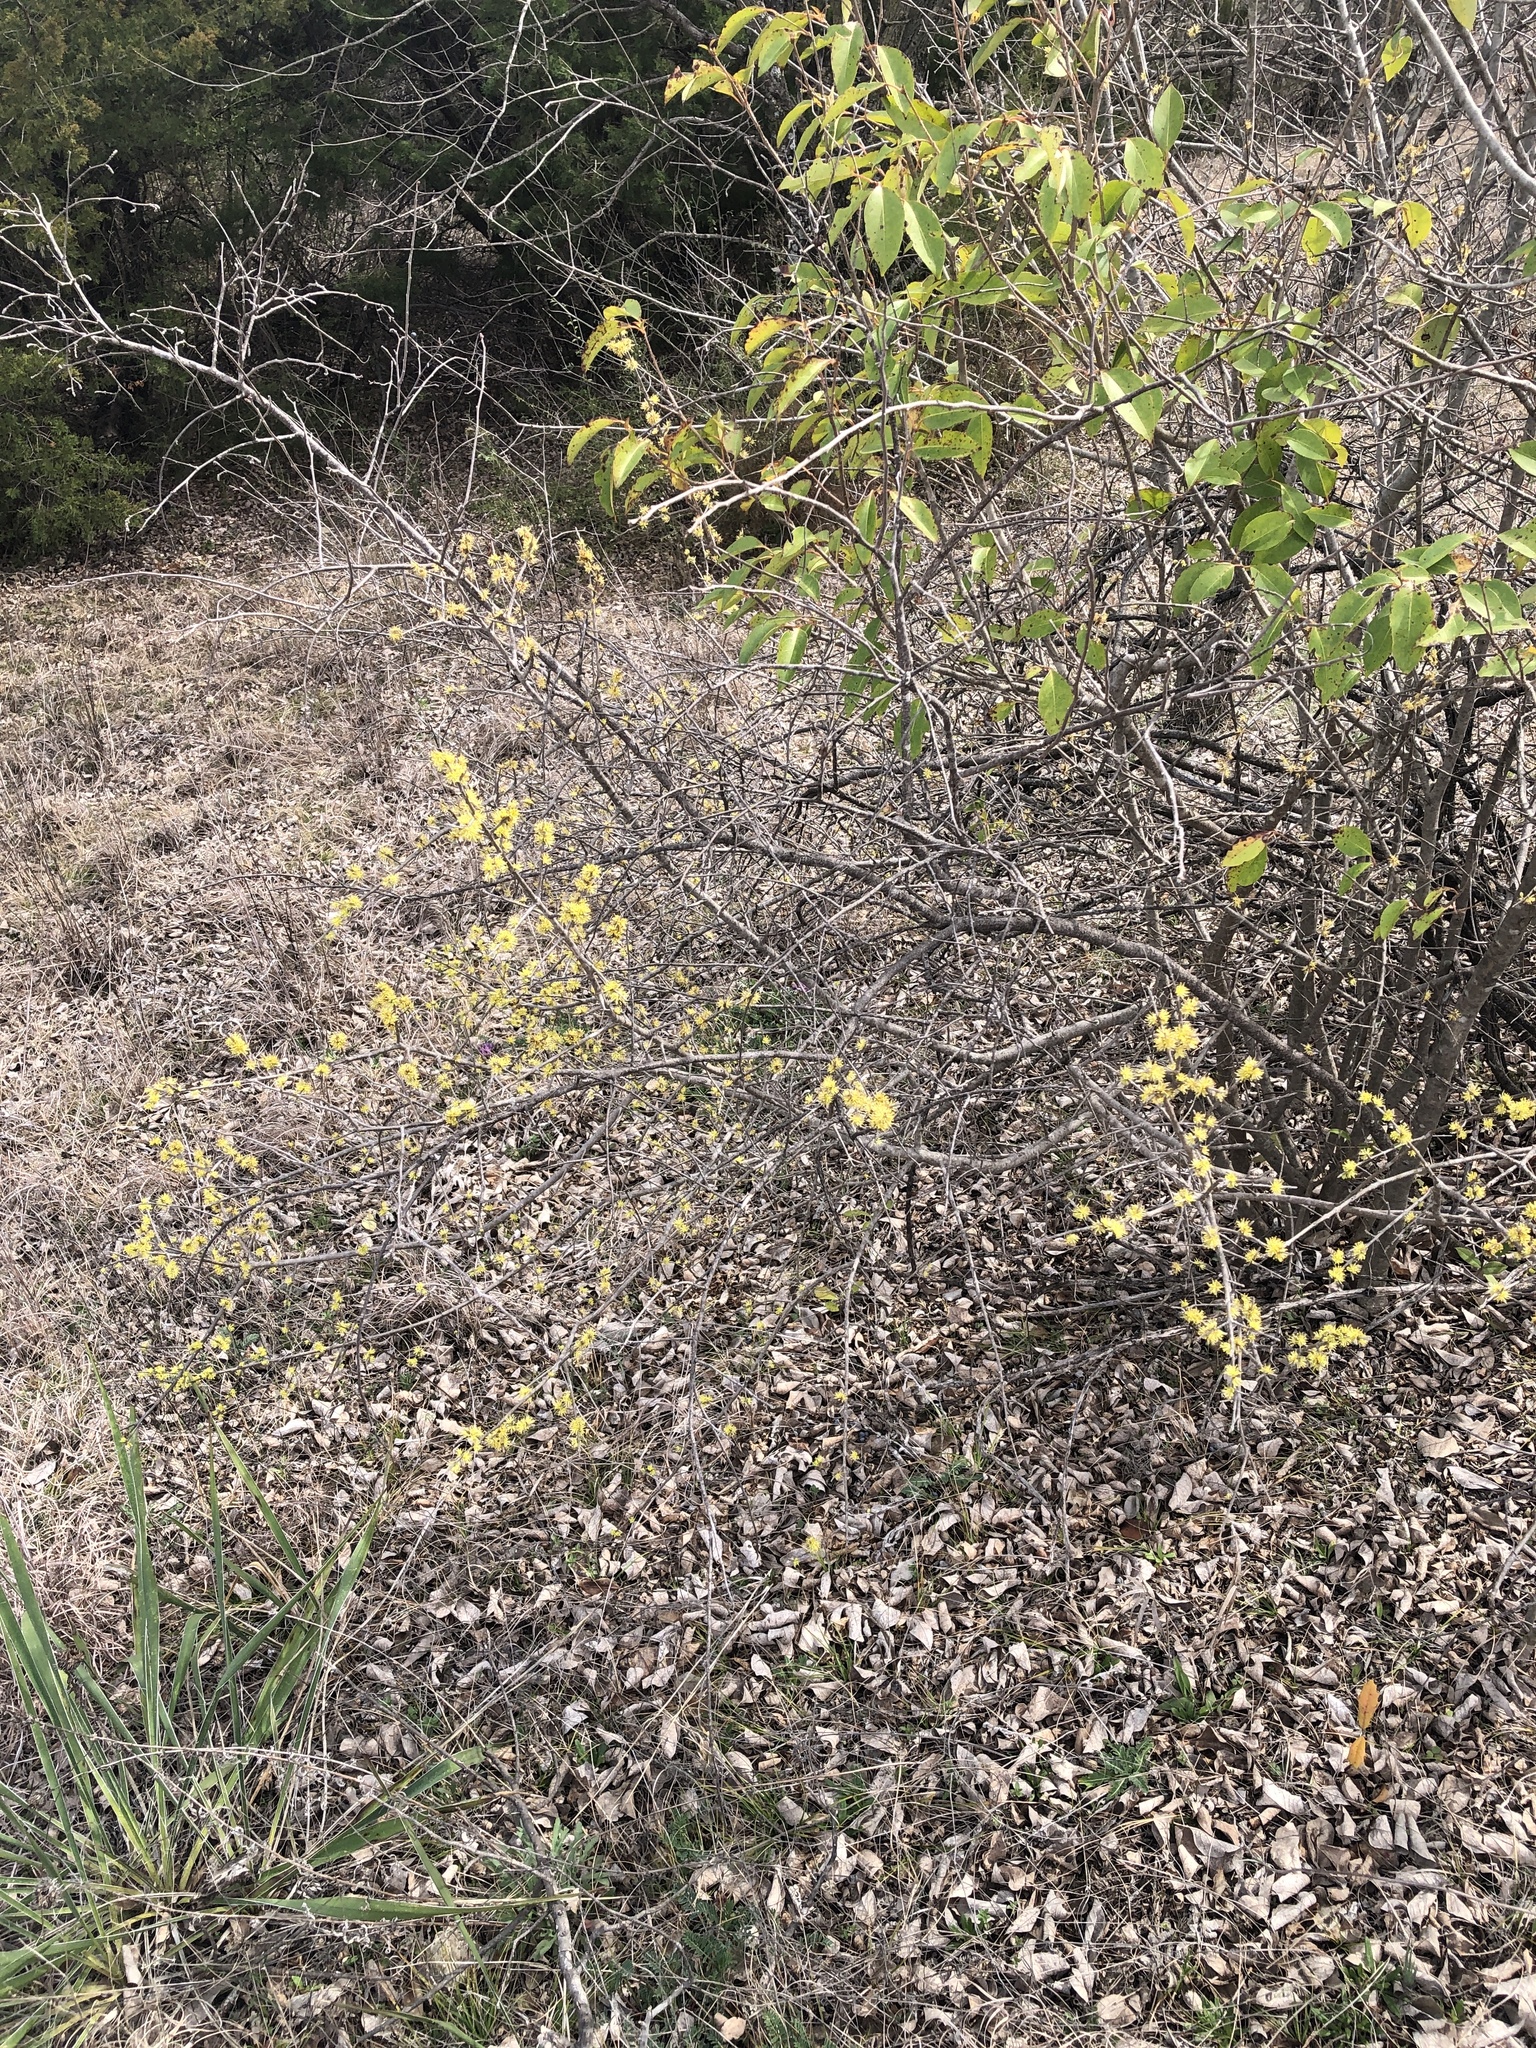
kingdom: Plantae
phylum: Tracheophyta
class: Magnoliopsida
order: Lamiales
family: Oleaceae
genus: Forestiera
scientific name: Forestiera pubescens
